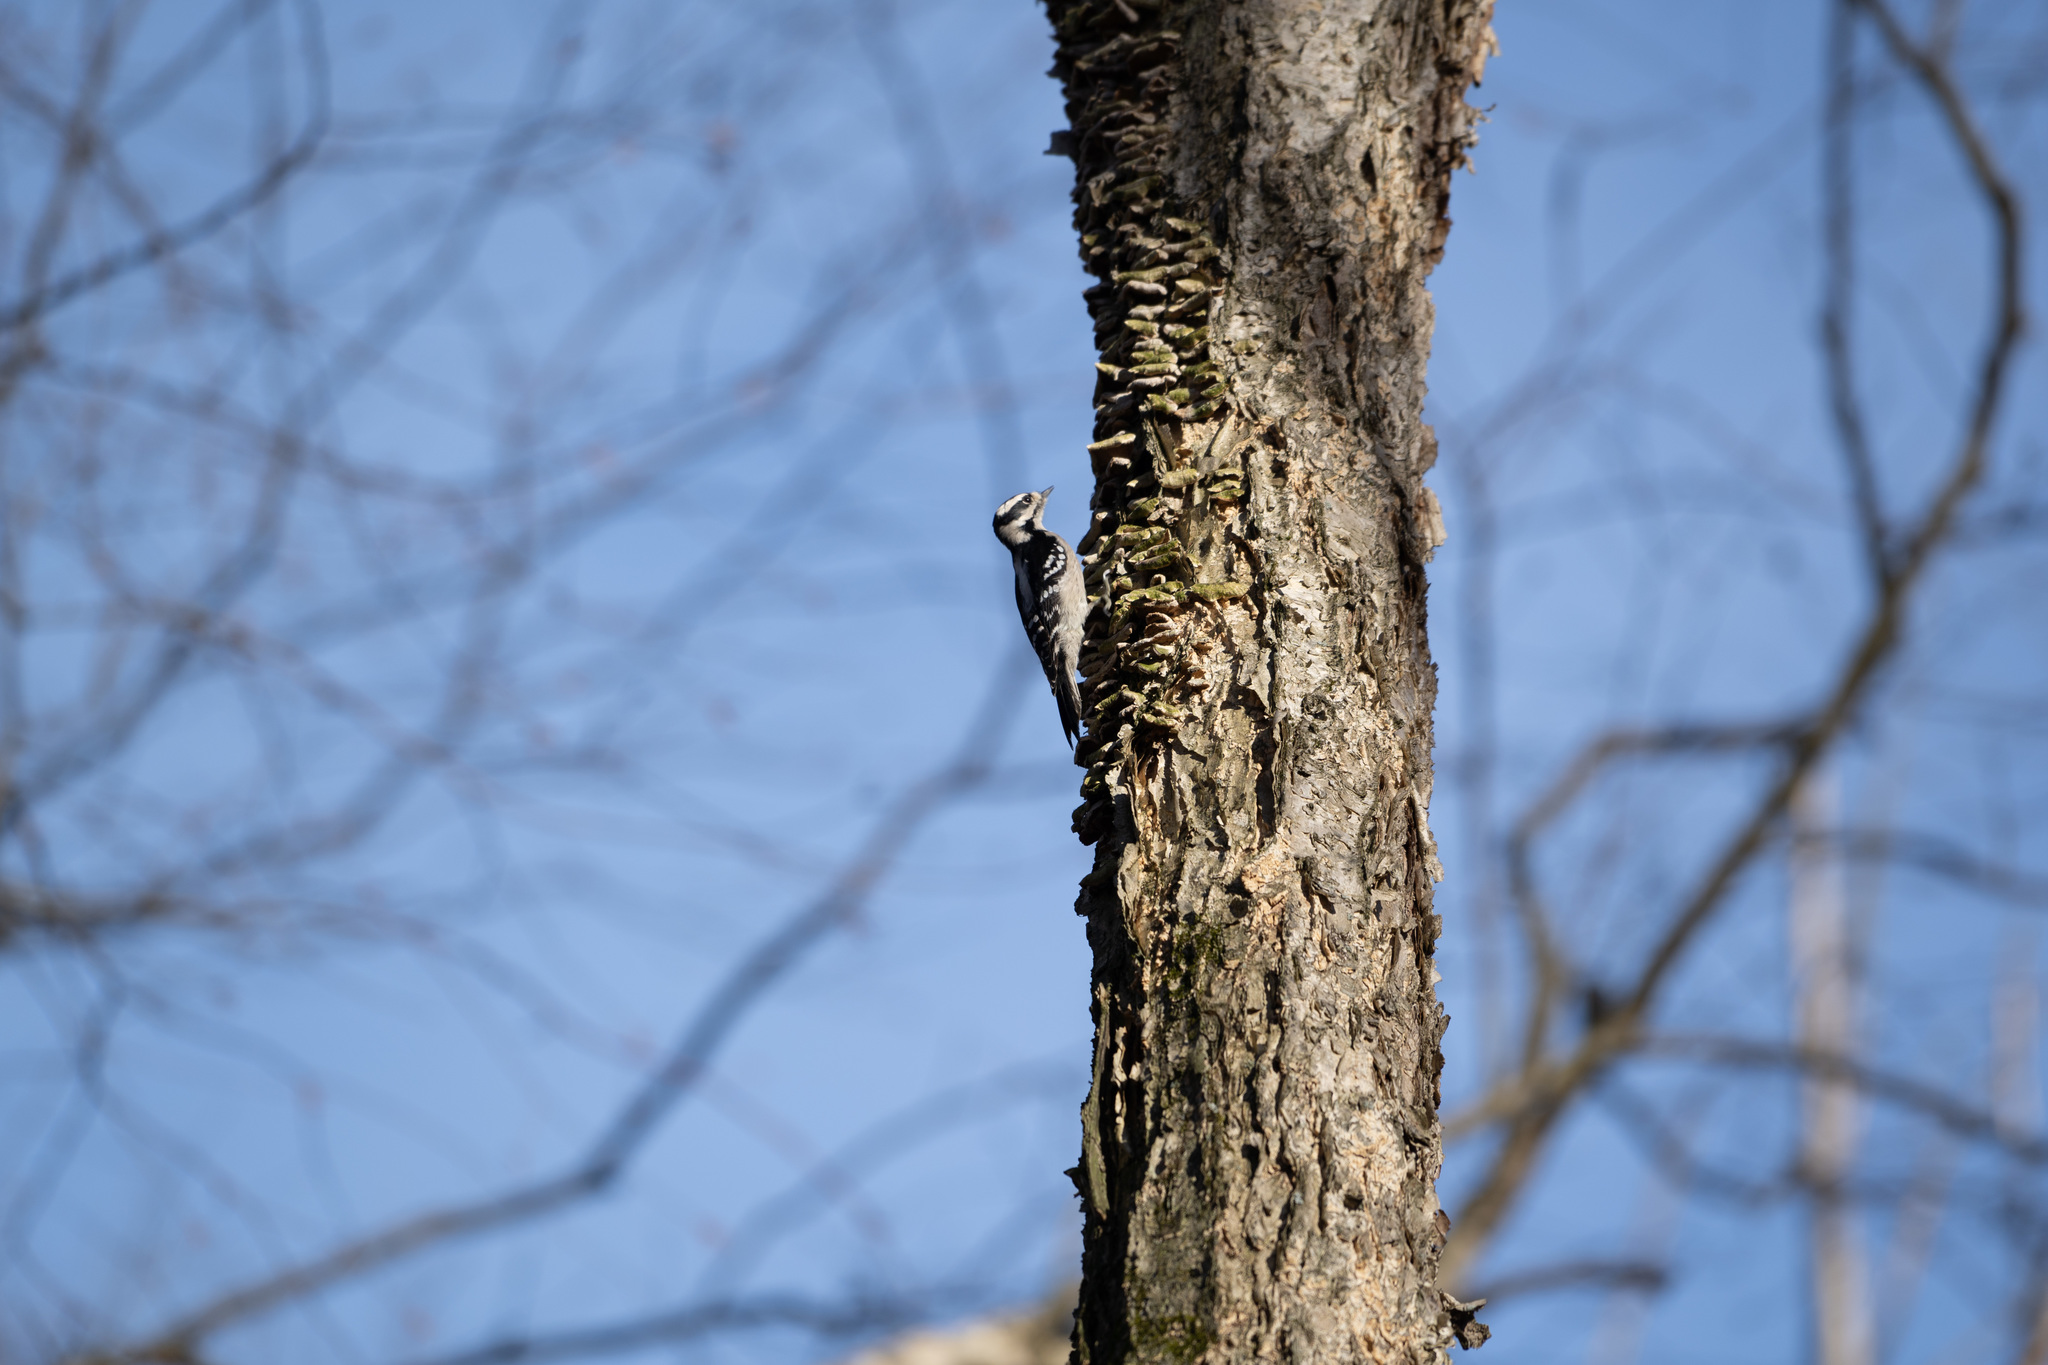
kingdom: Animalia
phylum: Chordata
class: Aves
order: Piciformes
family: Picidae
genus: Dryobates
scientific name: Dryobates pubescens
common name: Downy woodpecker
